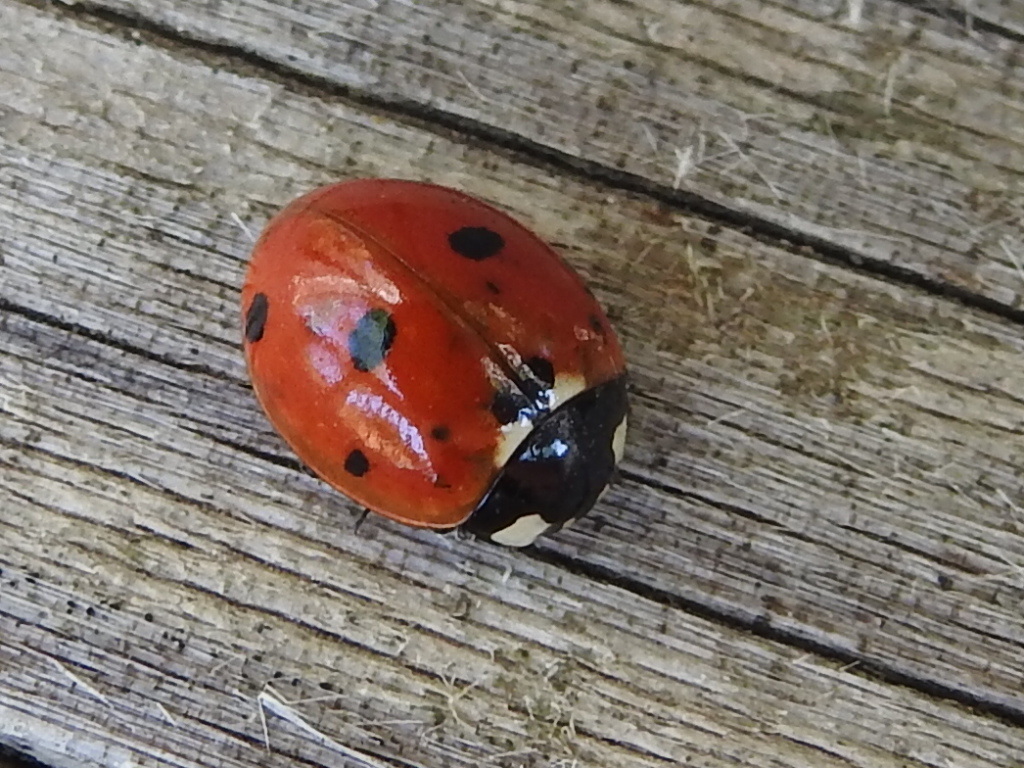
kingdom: Animalia
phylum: Arthropoda
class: Insecta
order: Coleoptera
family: Coccinellidae
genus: Coccinella
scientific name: Coccinella septempunctata
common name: Sevenspotted lady beetle
